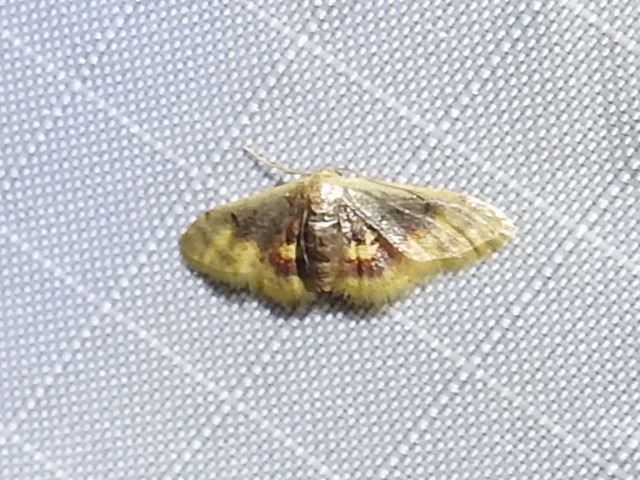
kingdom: Animalia
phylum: Arthropoda
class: Insecta
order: Lepidoptera
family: Geometridae
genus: Idaea
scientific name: Idaea scintillularia
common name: Diminutive wave
